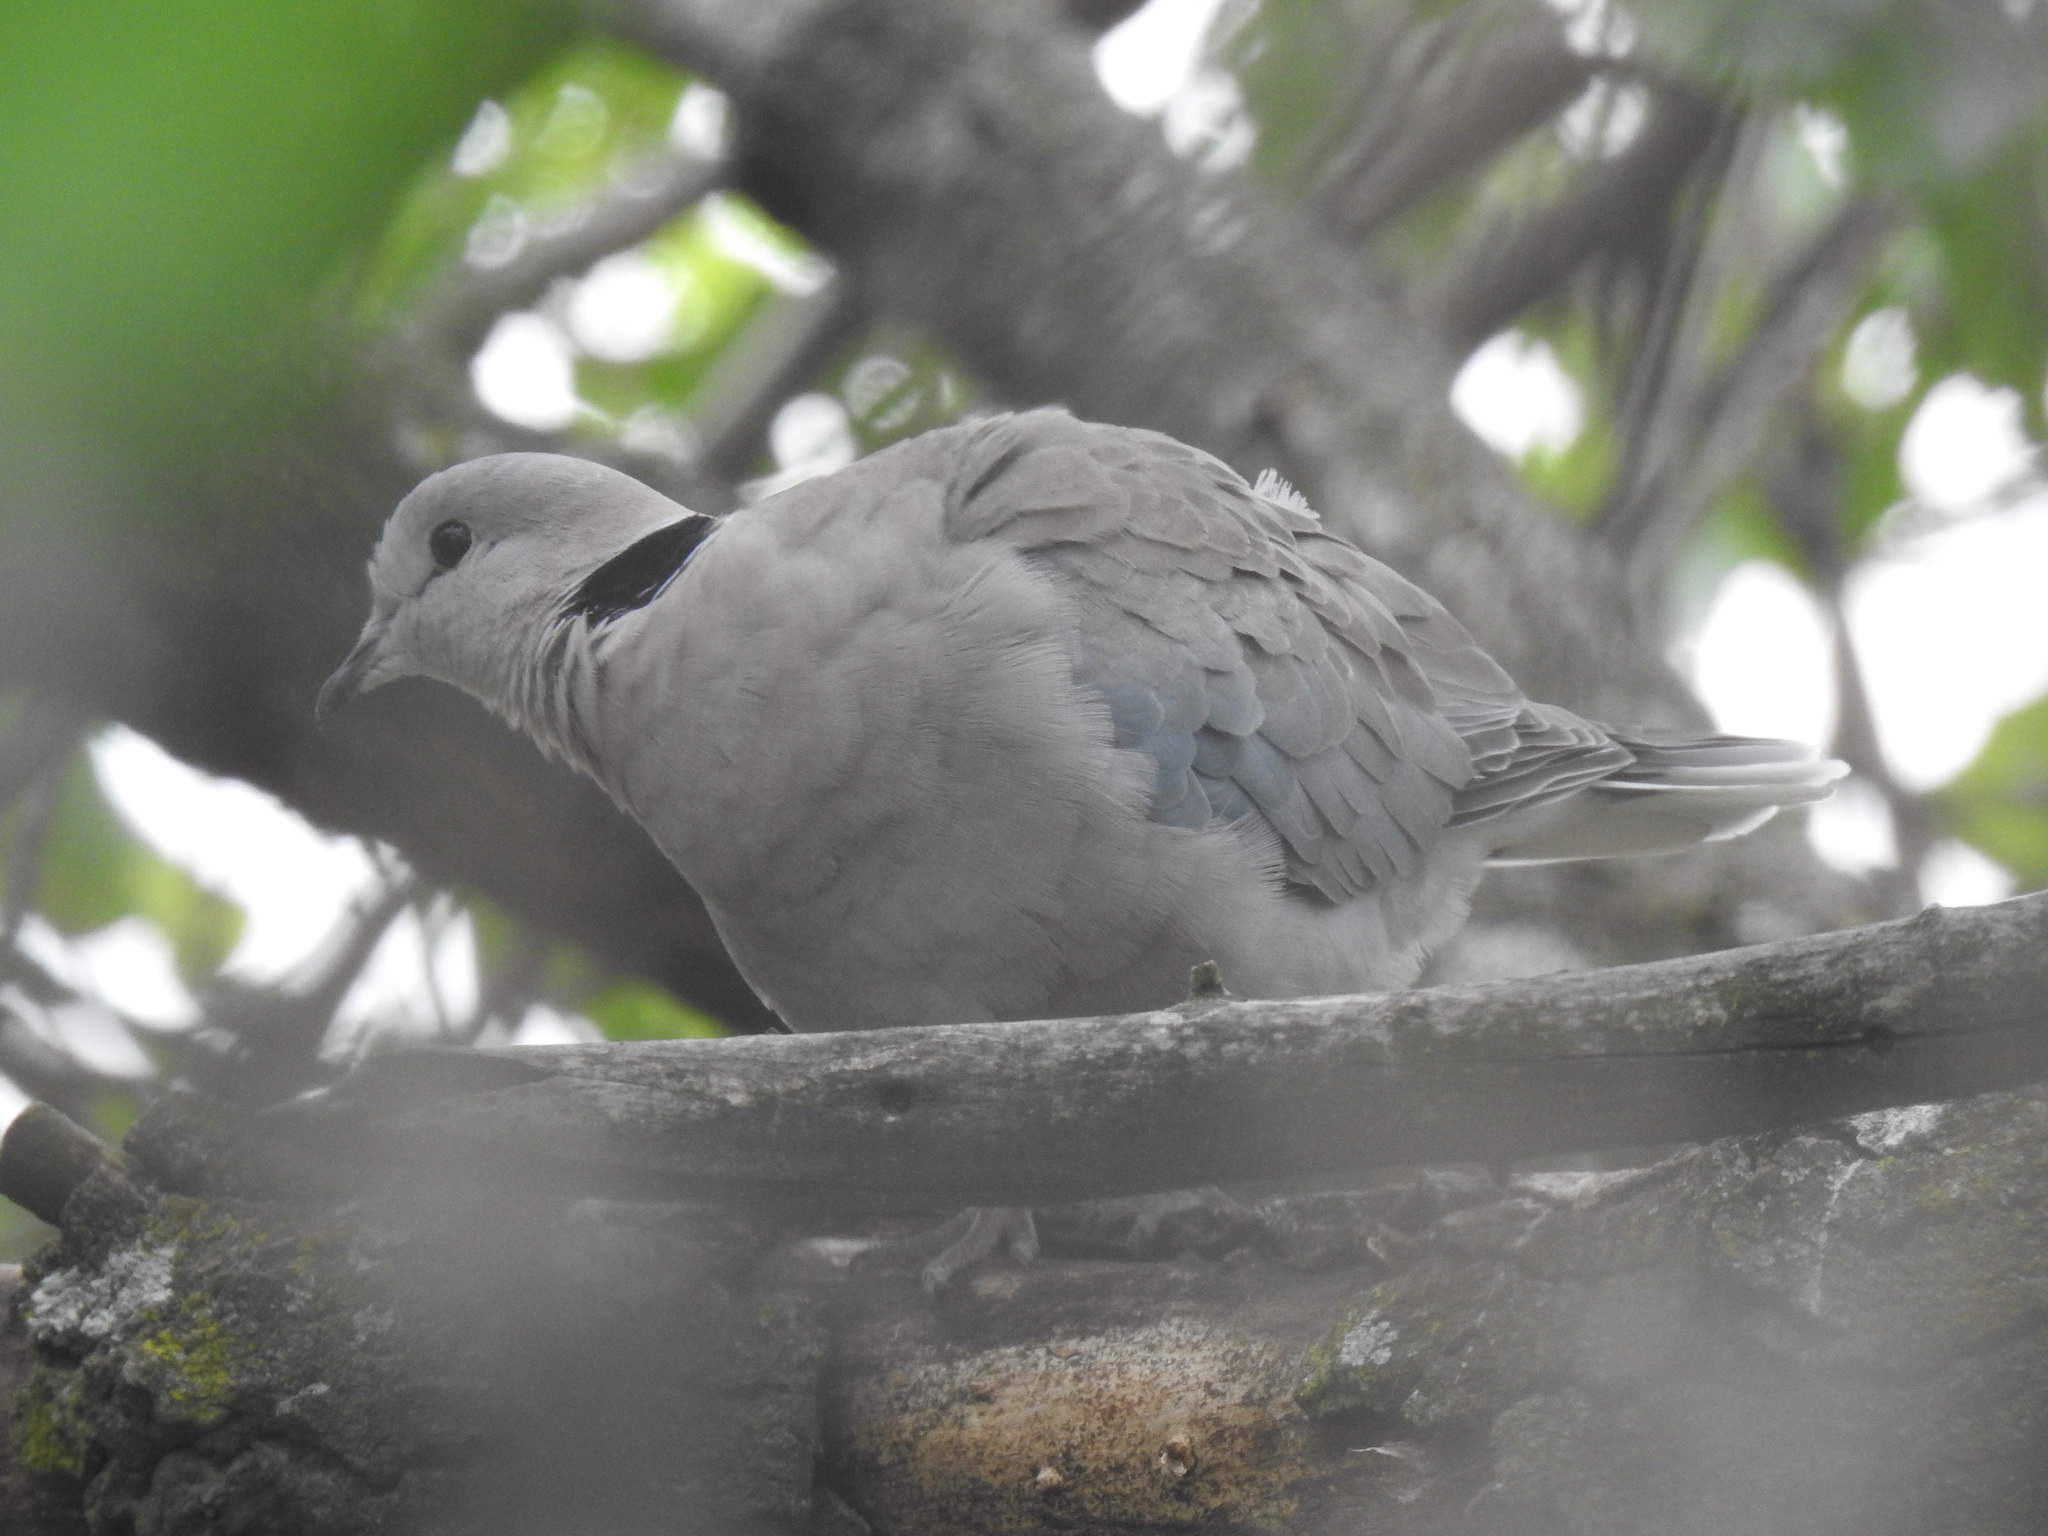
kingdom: Animalia
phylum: Chordata
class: Aves
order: Columbiformes
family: Columbidae
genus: Streptopelia
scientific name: Streptopelia capicola
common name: Ring-necked dove
